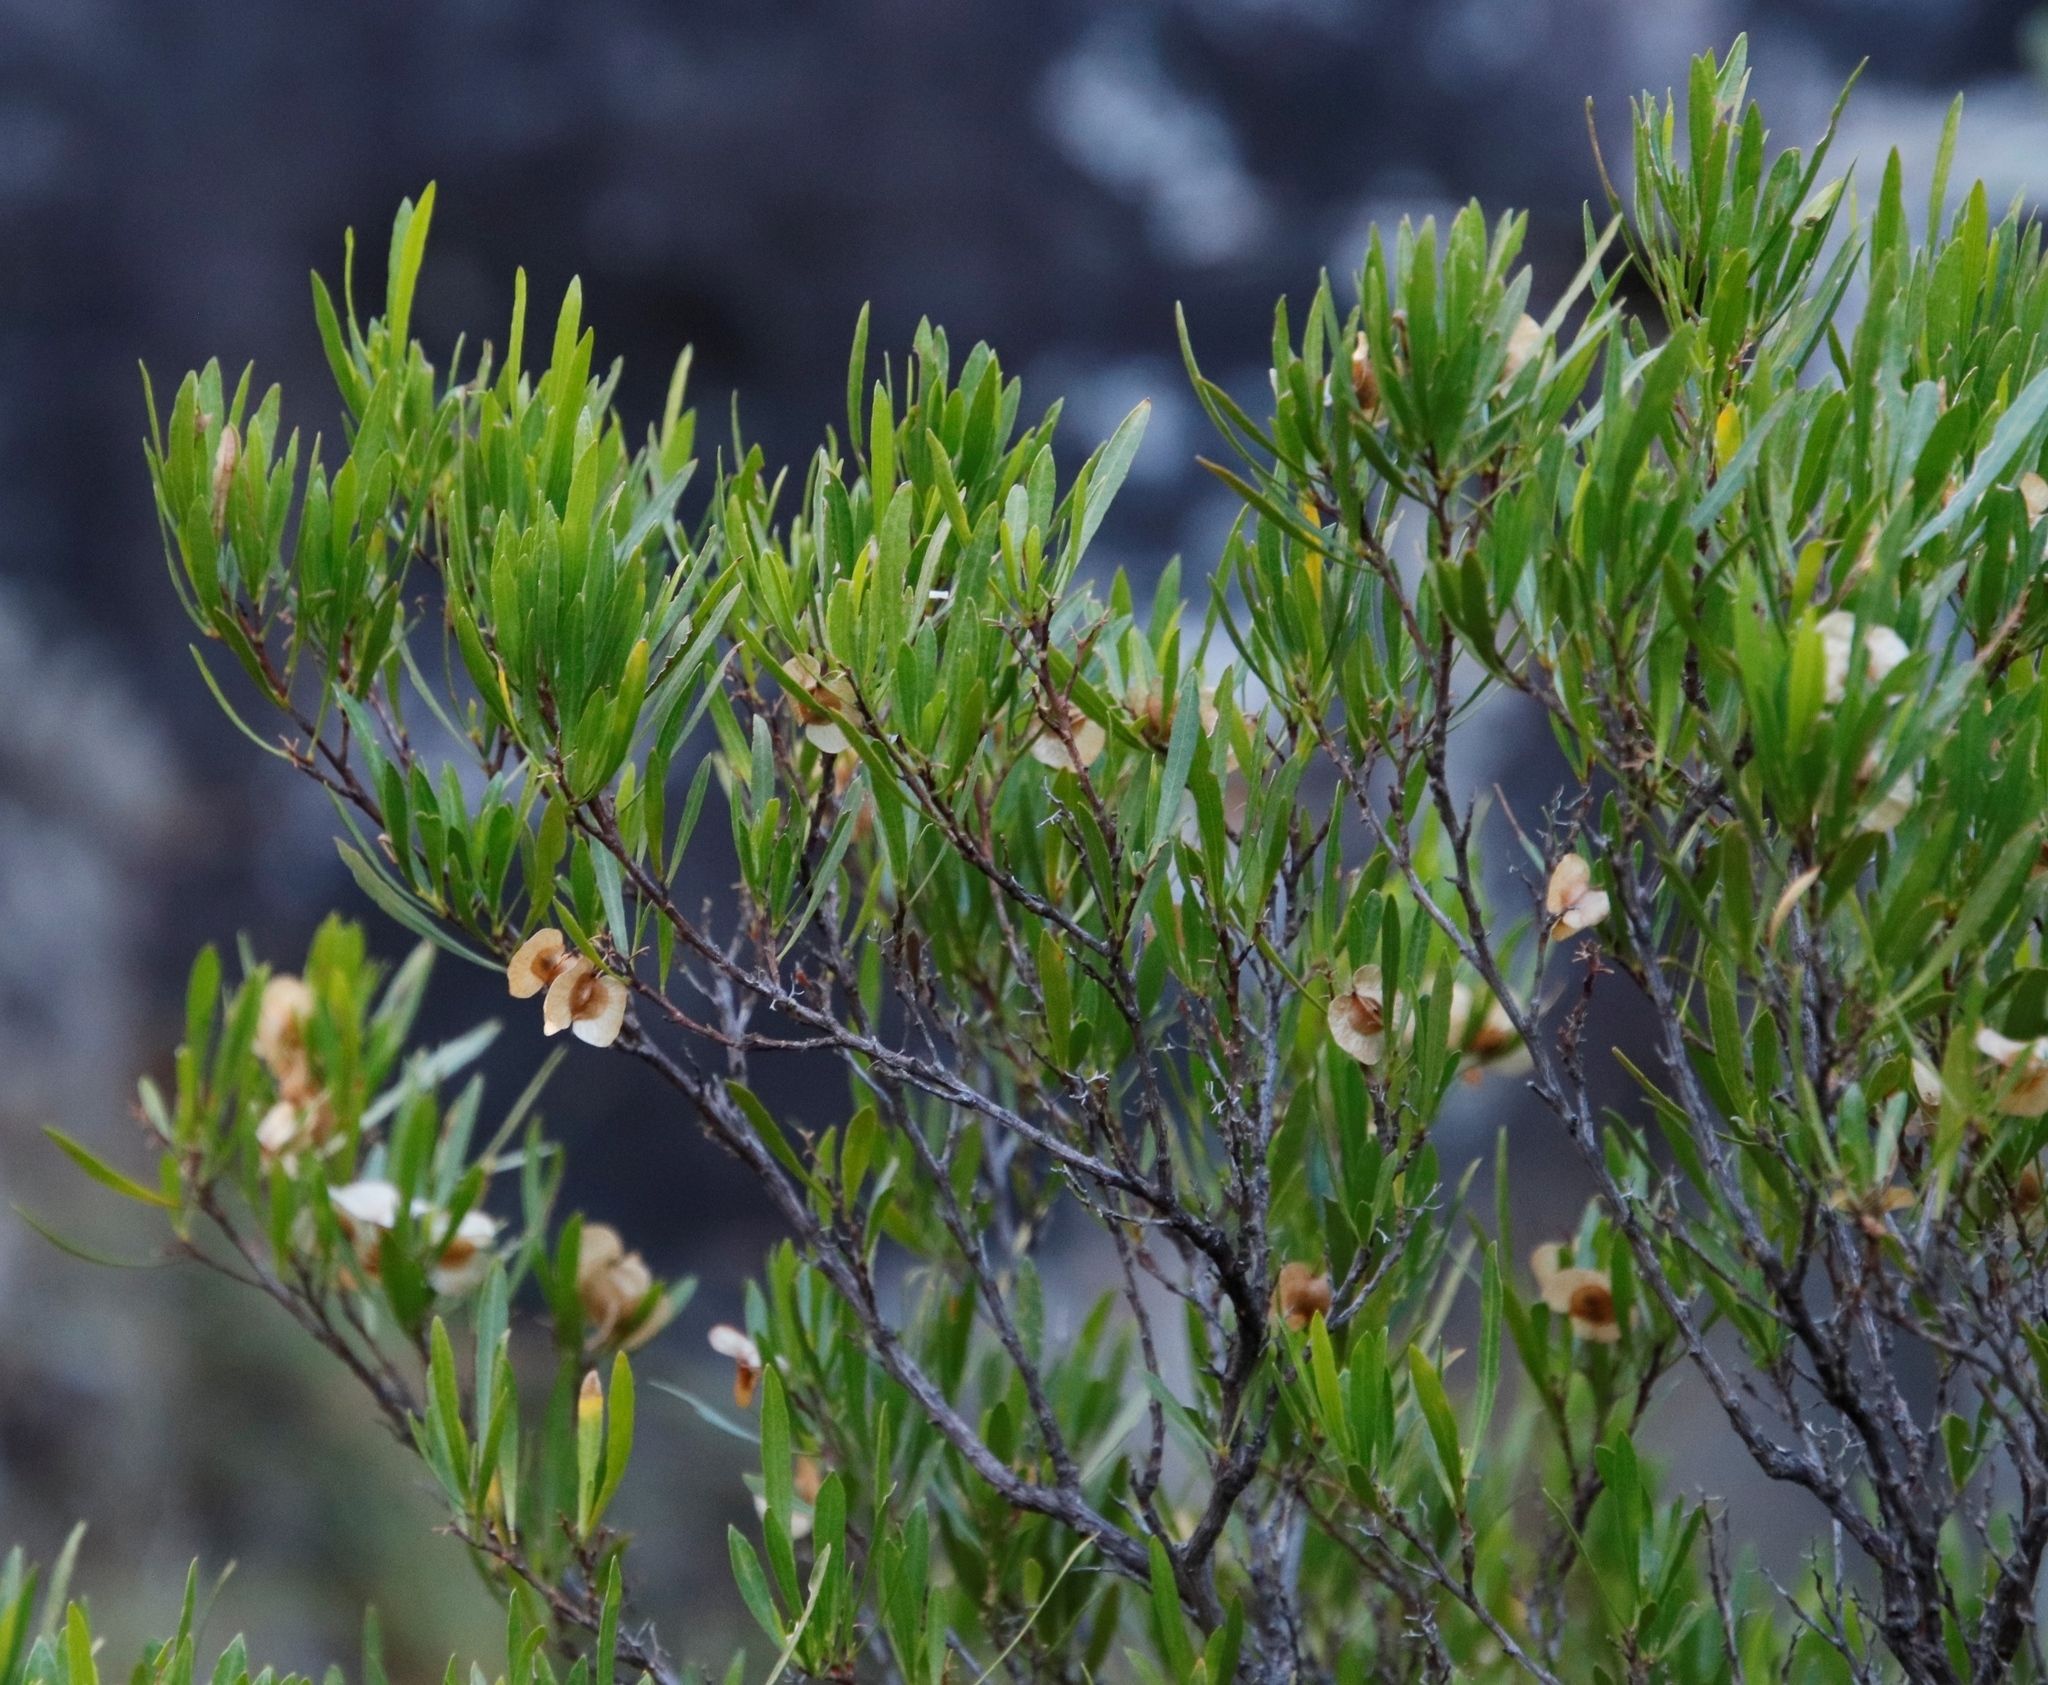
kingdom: Plantae
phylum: Tracheophyta
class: Magnoliopsida
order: Sapindales
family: Sapindaceae
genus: Dodonaea
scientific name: Dodonaea viscosa
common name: Hopbush
